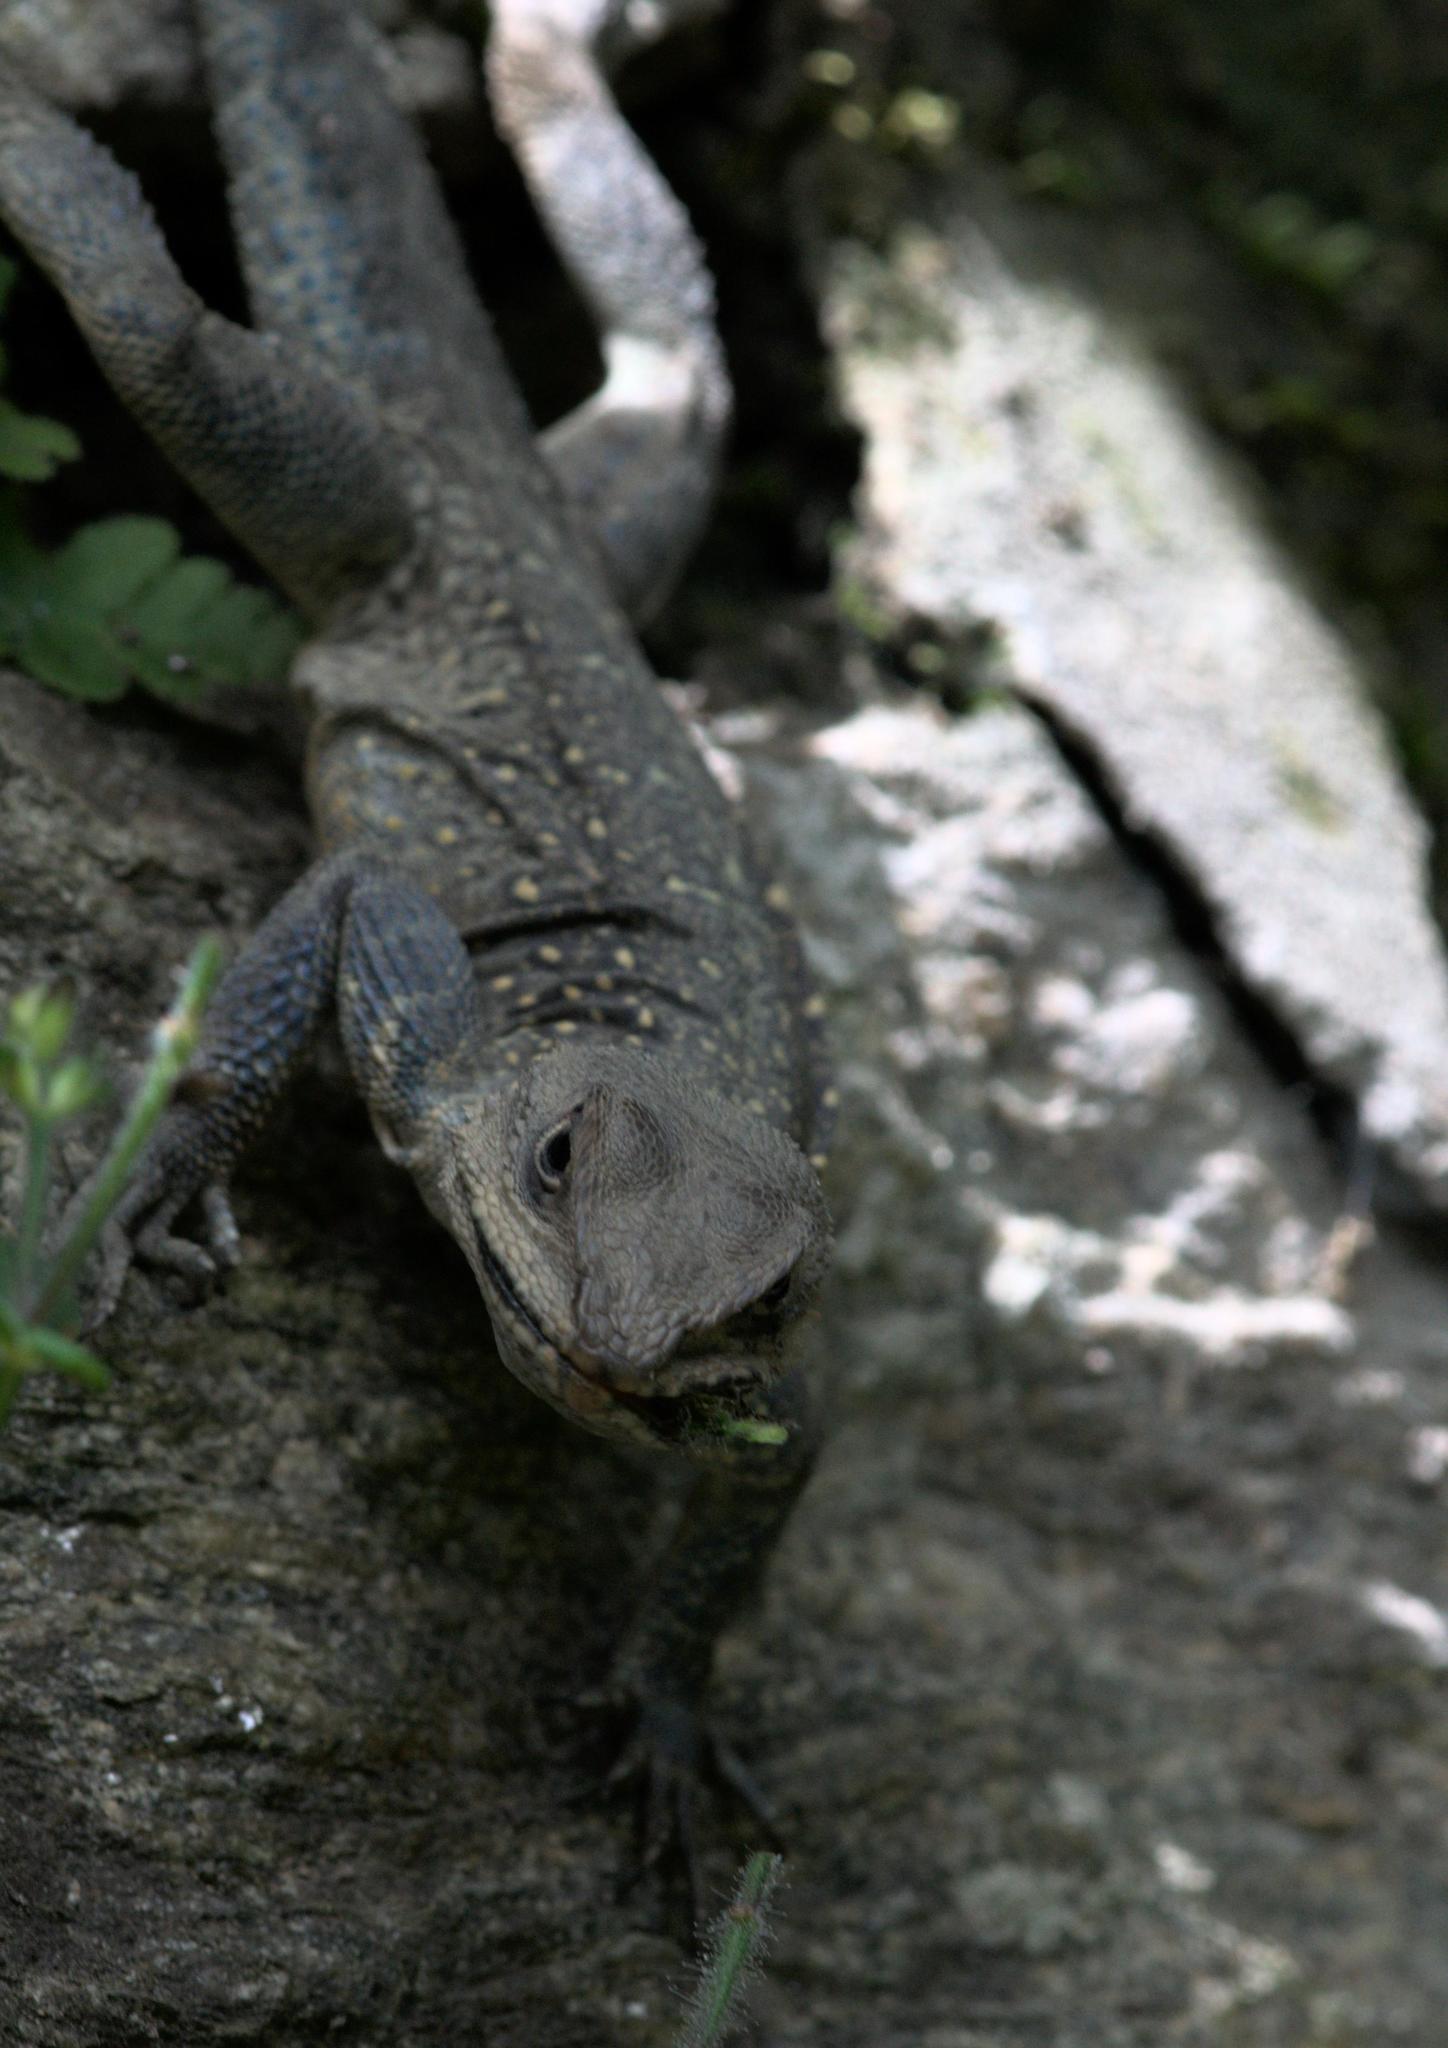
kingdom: Animalia
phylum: Chordata
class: Squamata
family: Agamidae
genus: Laudakia
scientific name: Laudakia tuberculata
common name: Kashmir rock agama
